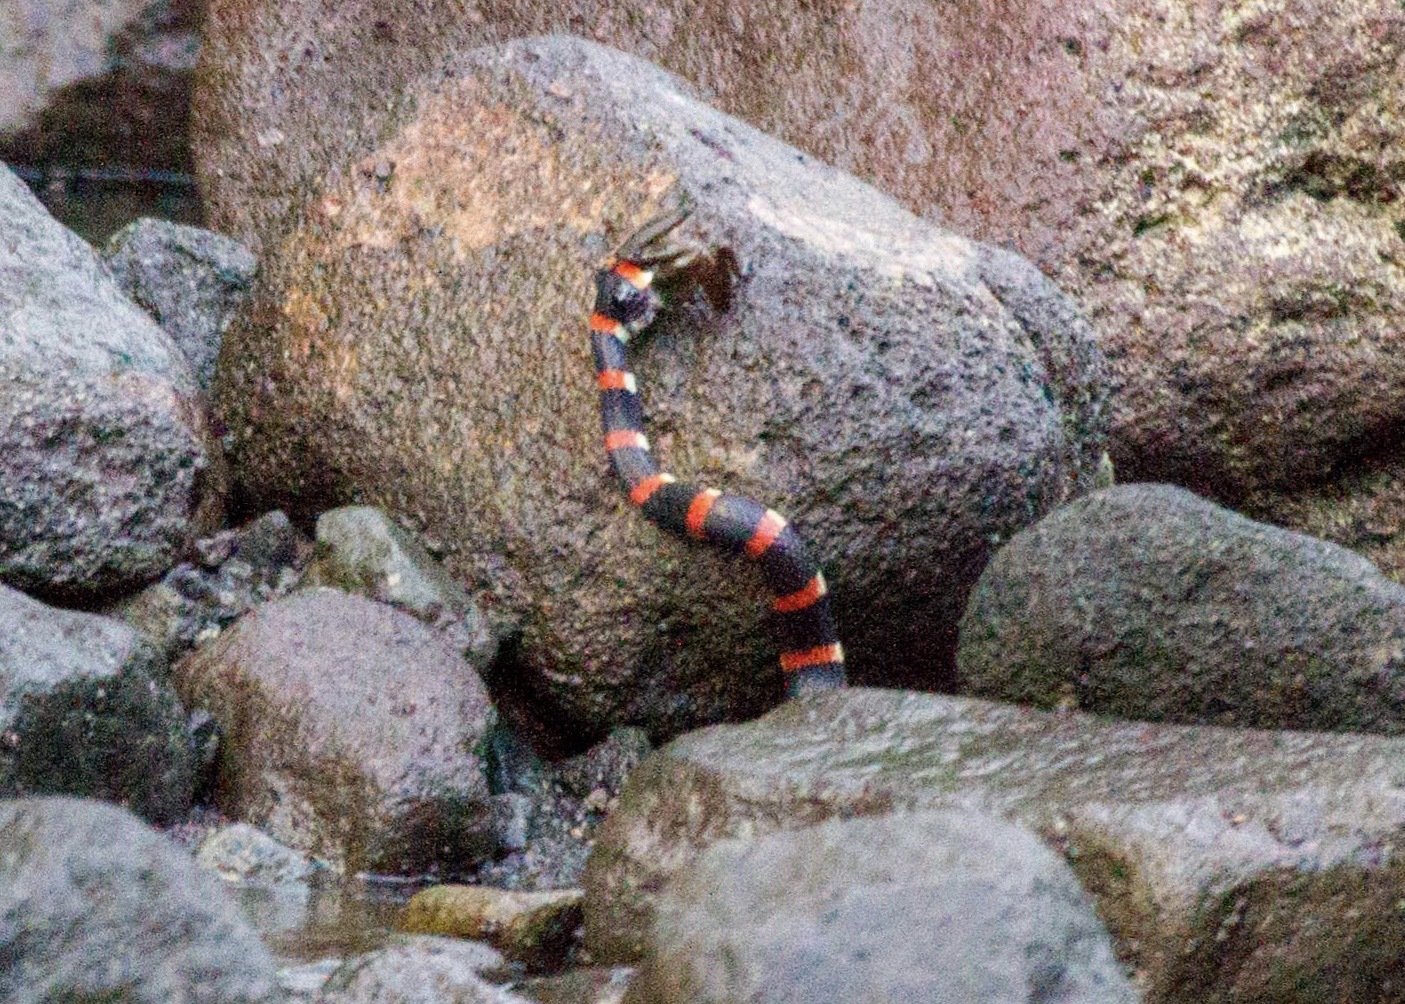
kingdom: Animalia
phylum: Chordata
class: Squamata
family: Colubridae
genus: Pliocercus
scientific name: Pliocercus euryzonus
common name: Cope's false coral snake
